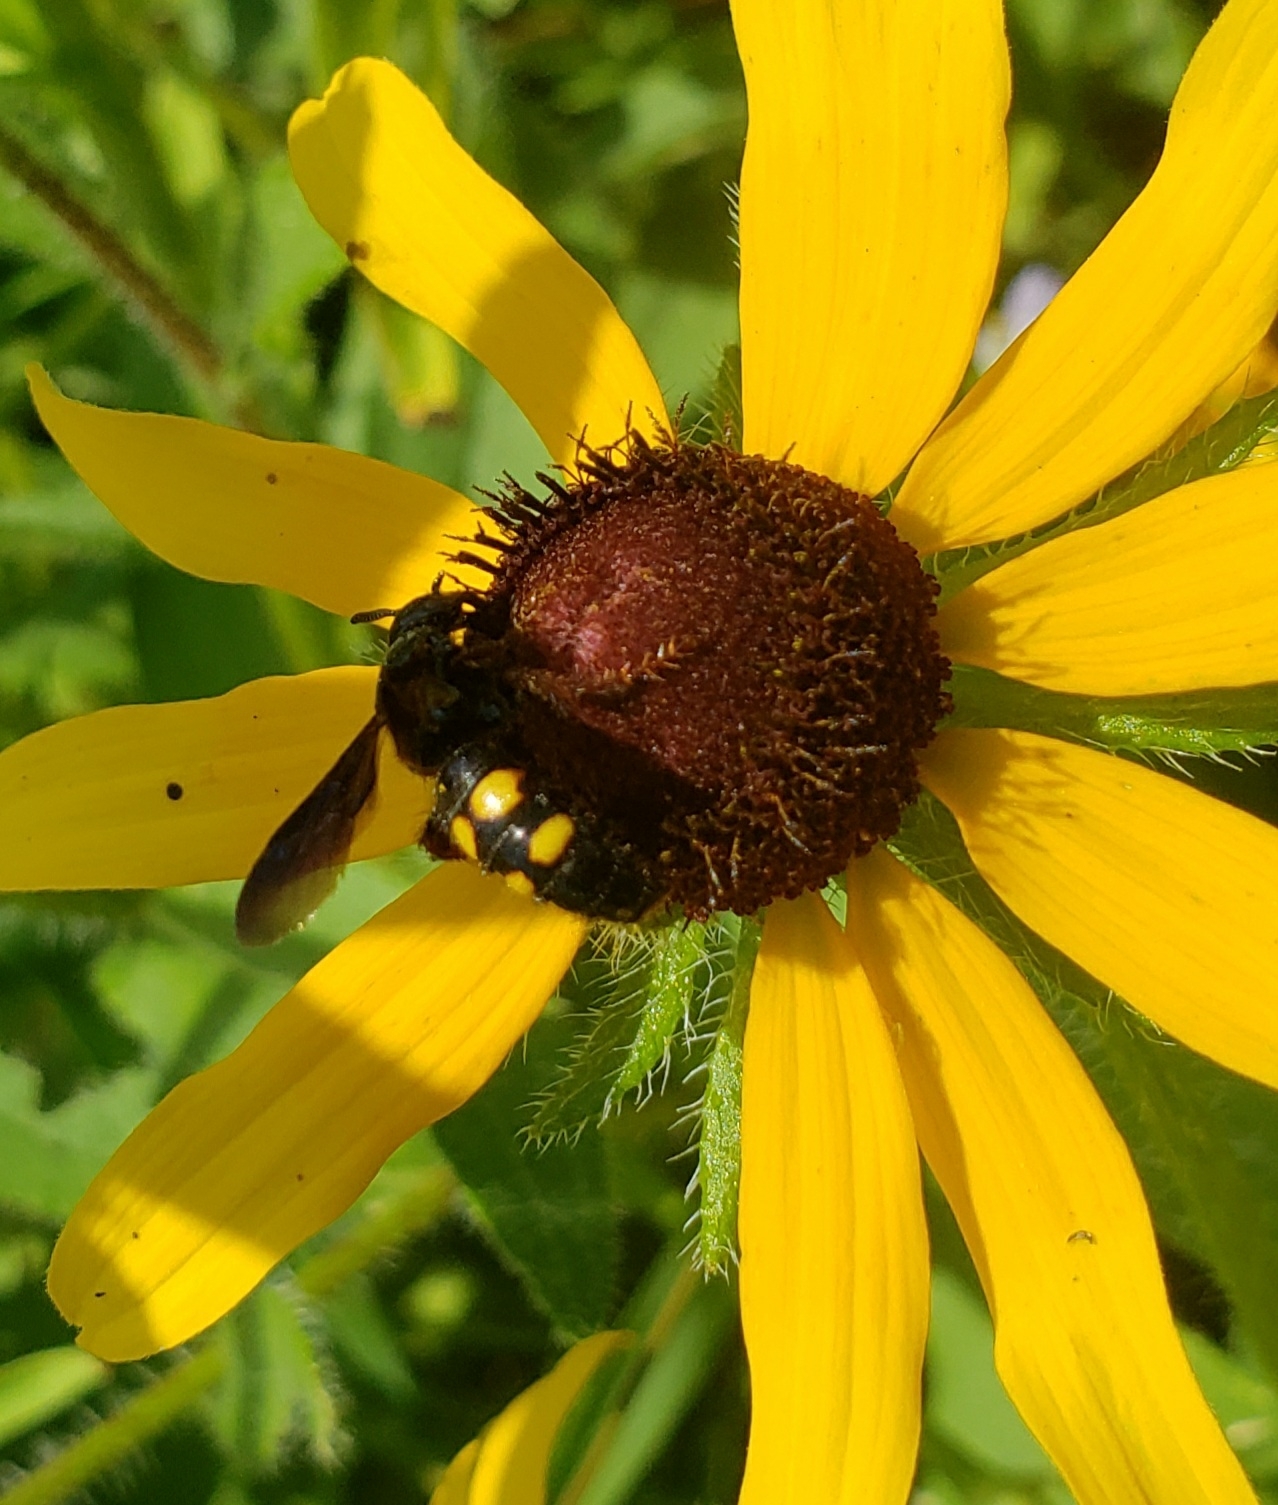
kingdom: Animalia
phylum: Arthropoda
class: Insecta
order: Hymenoptera
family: Scoliidae
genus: Scolia
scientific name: Scolia nobilitata
